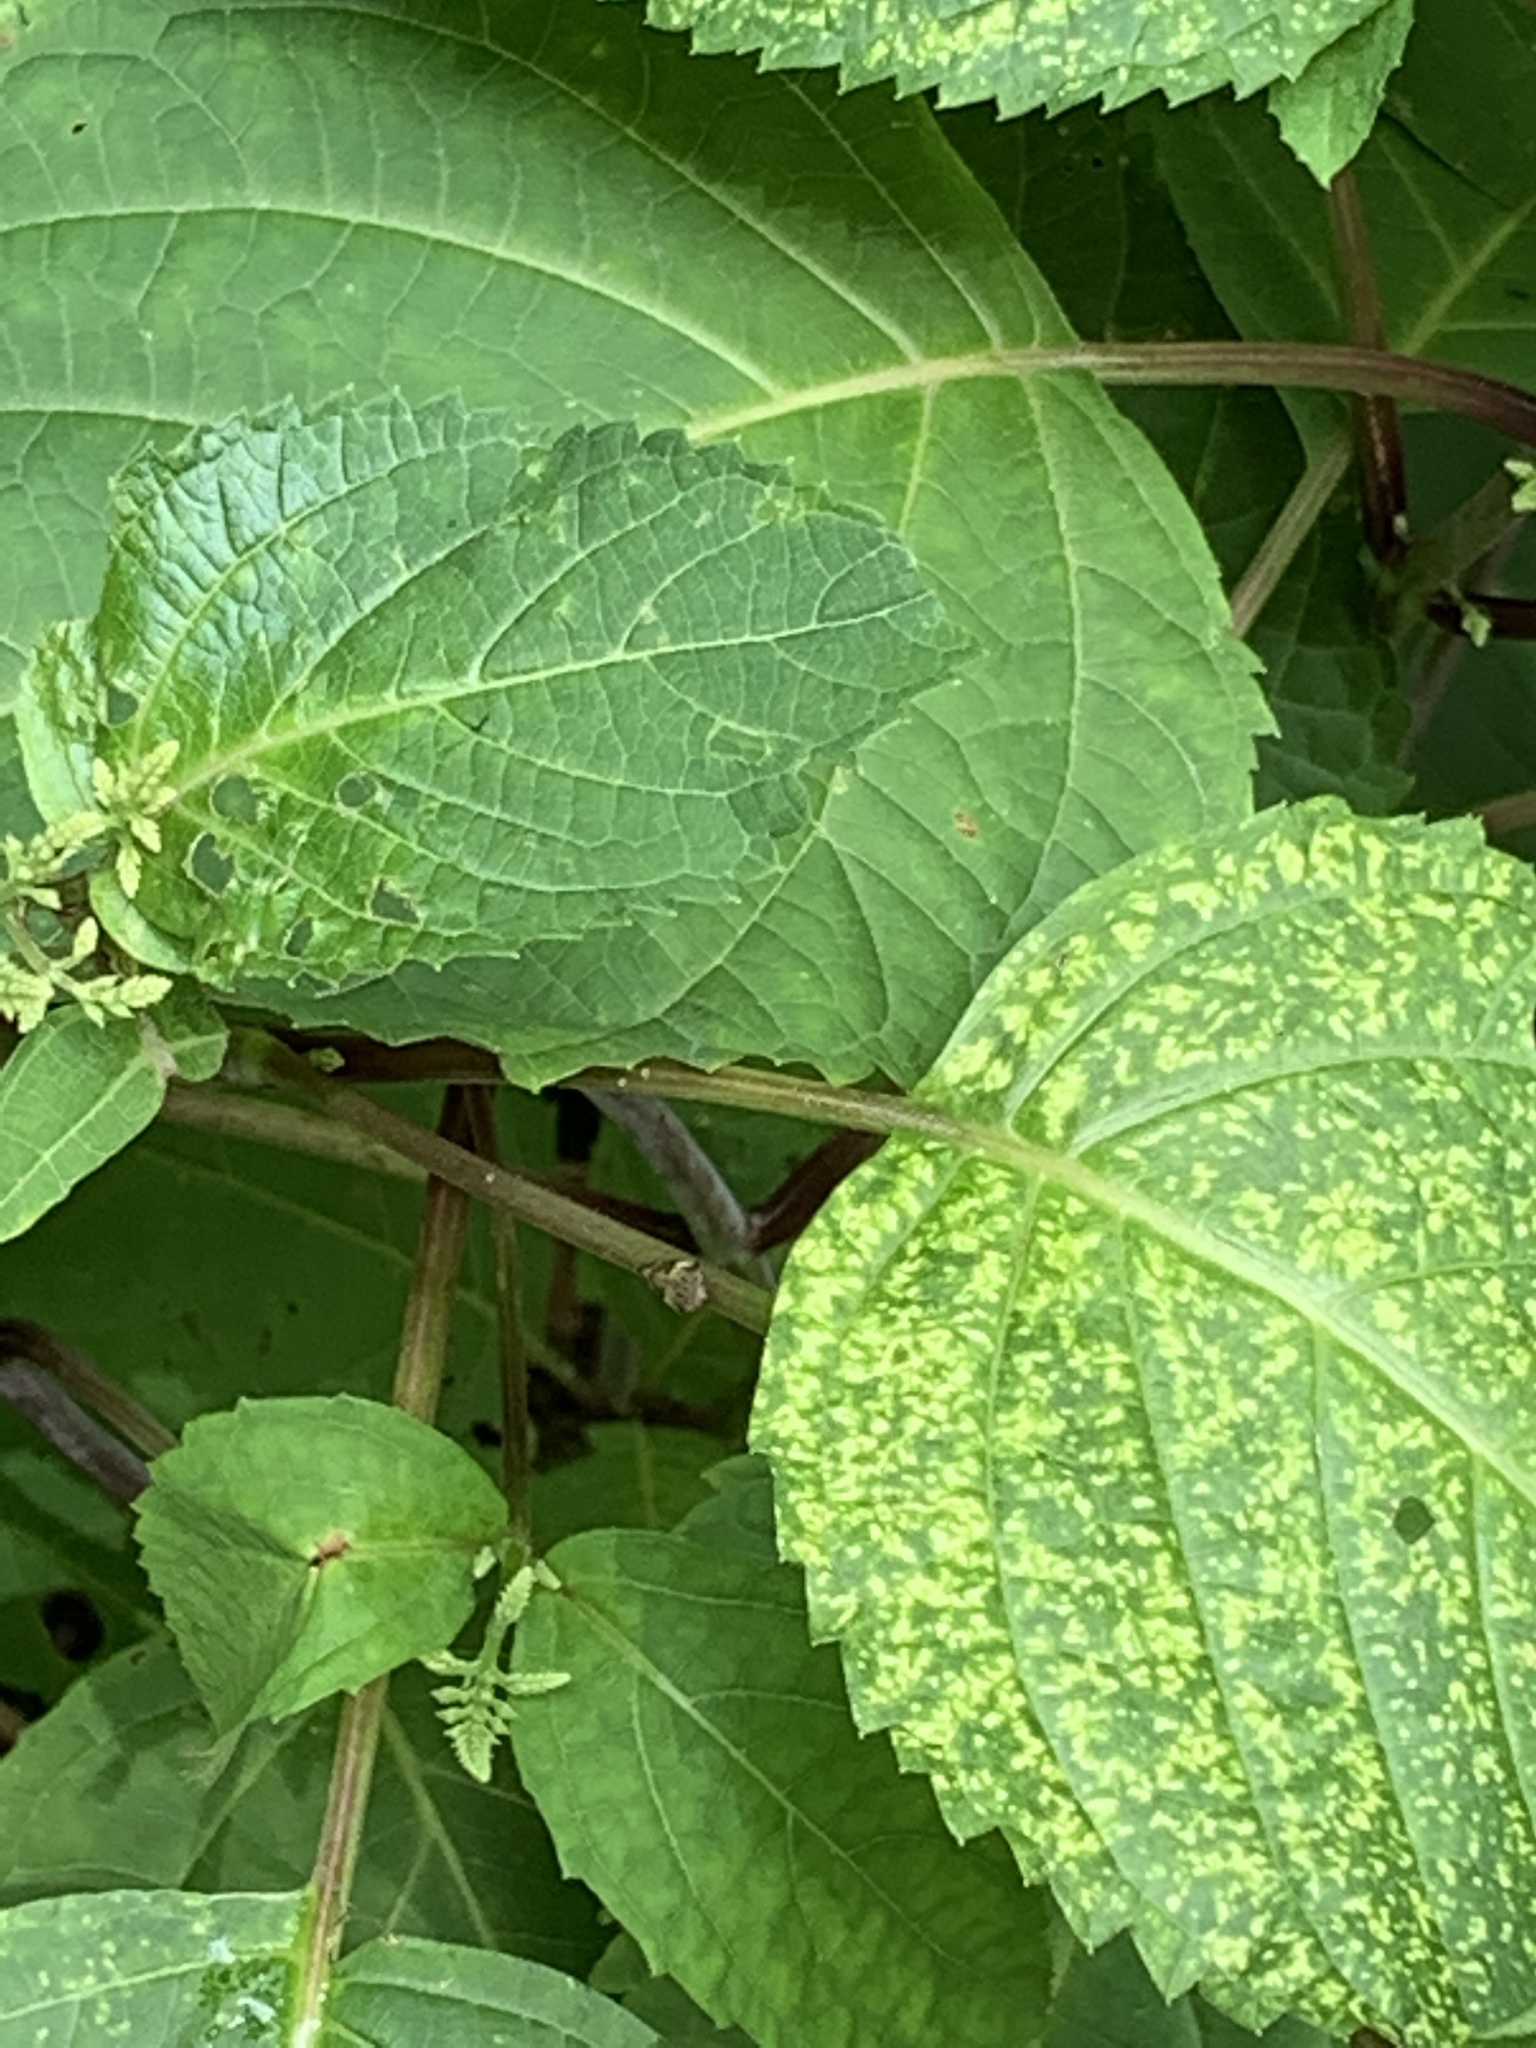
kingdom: Plantae
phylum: Tracheophyta
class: Magnoliopsida
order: Lamiales
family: Lamiaceae
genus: Collinsonia
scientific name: Collinsonia canadensis
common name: Northern horsebalm
